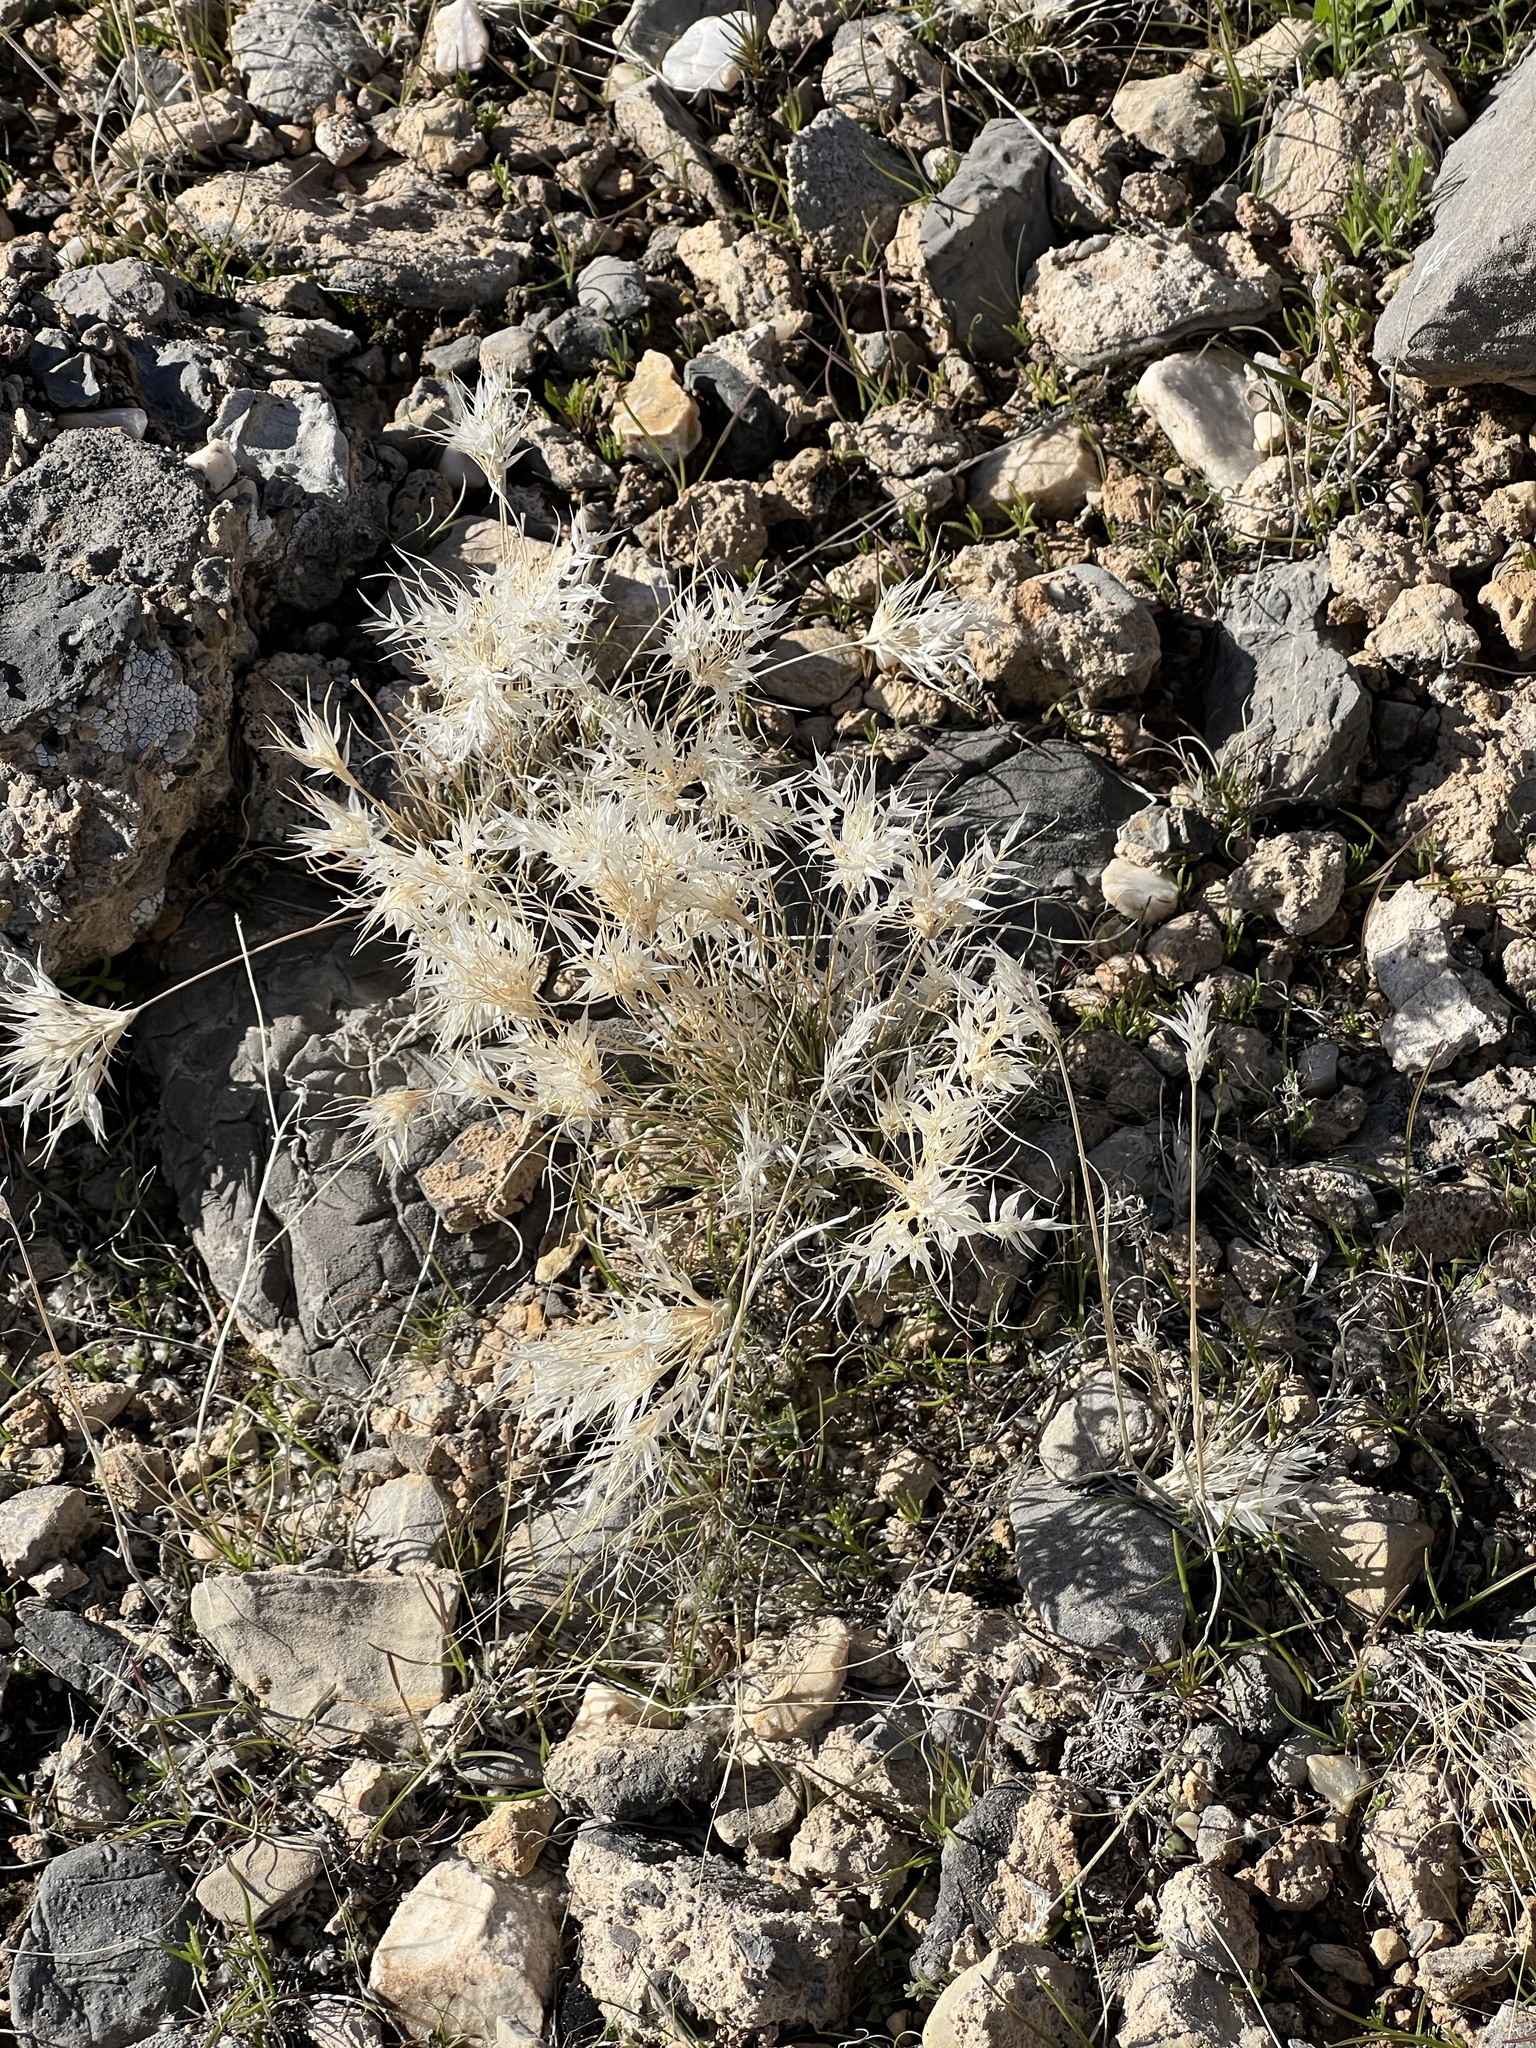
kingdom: Plantae
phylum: Tracheophyta
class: Liliopsida
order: Poales
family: Poaceae
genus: Dasyochloa
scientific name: Dasyochloa pulchella
